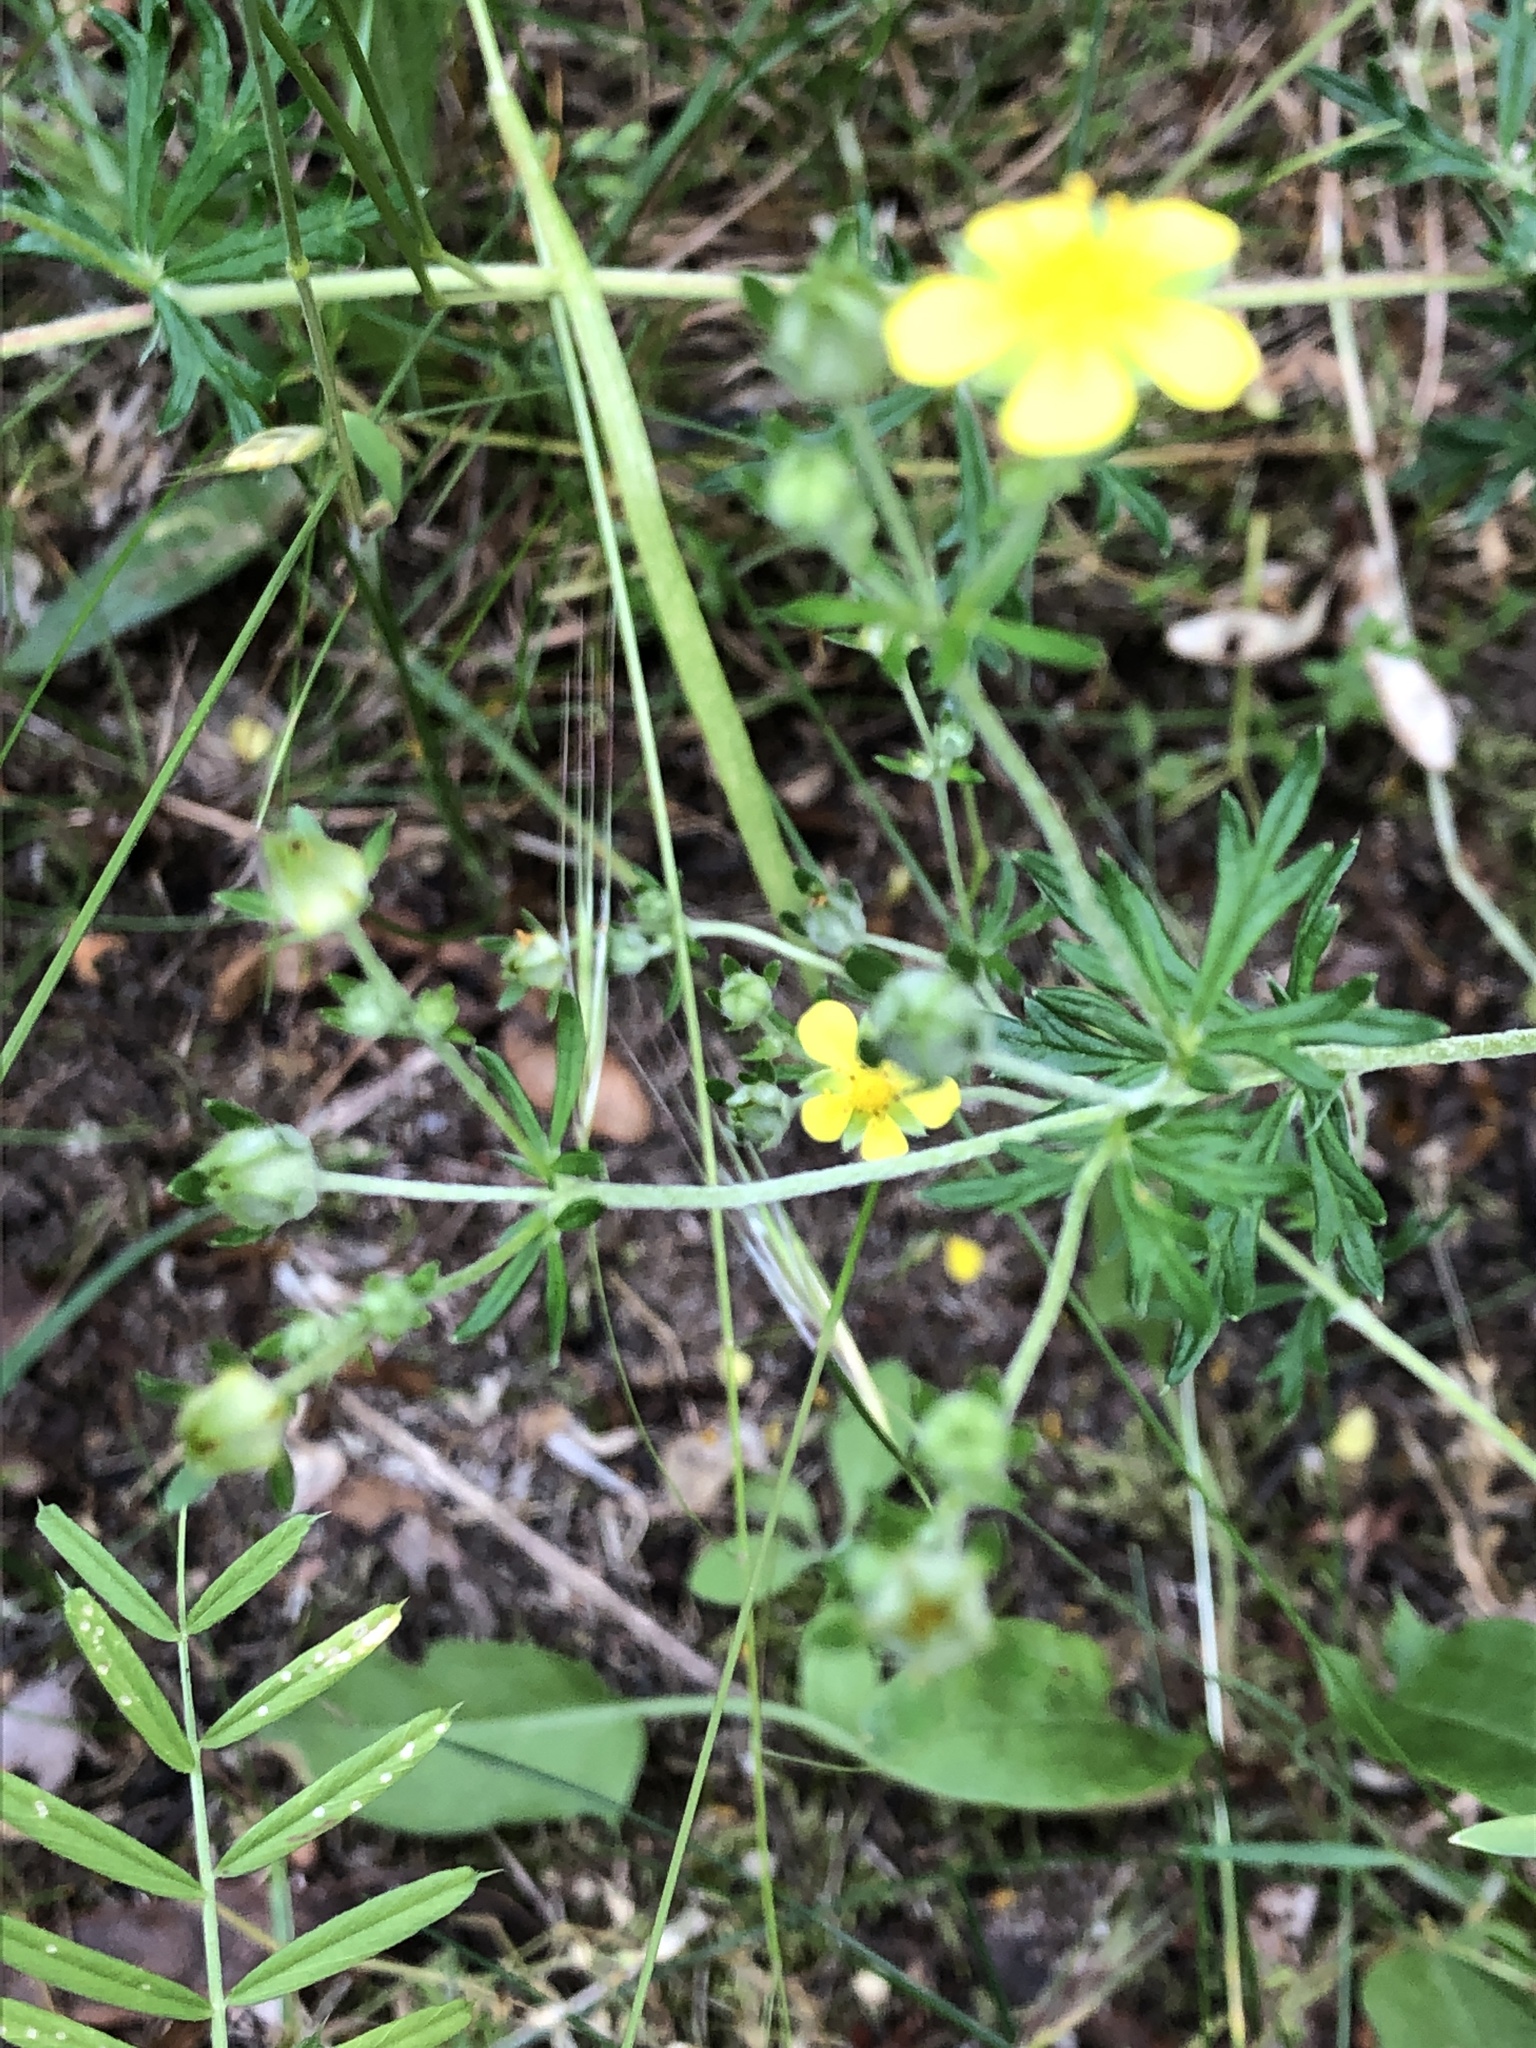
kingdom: Plantae
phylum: Tracheophyta
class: Magnoliopsida
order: Rosales
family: Rosaceae
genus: Potentilla
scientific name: Potentilla argentea
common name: Hoary cinquefoil
